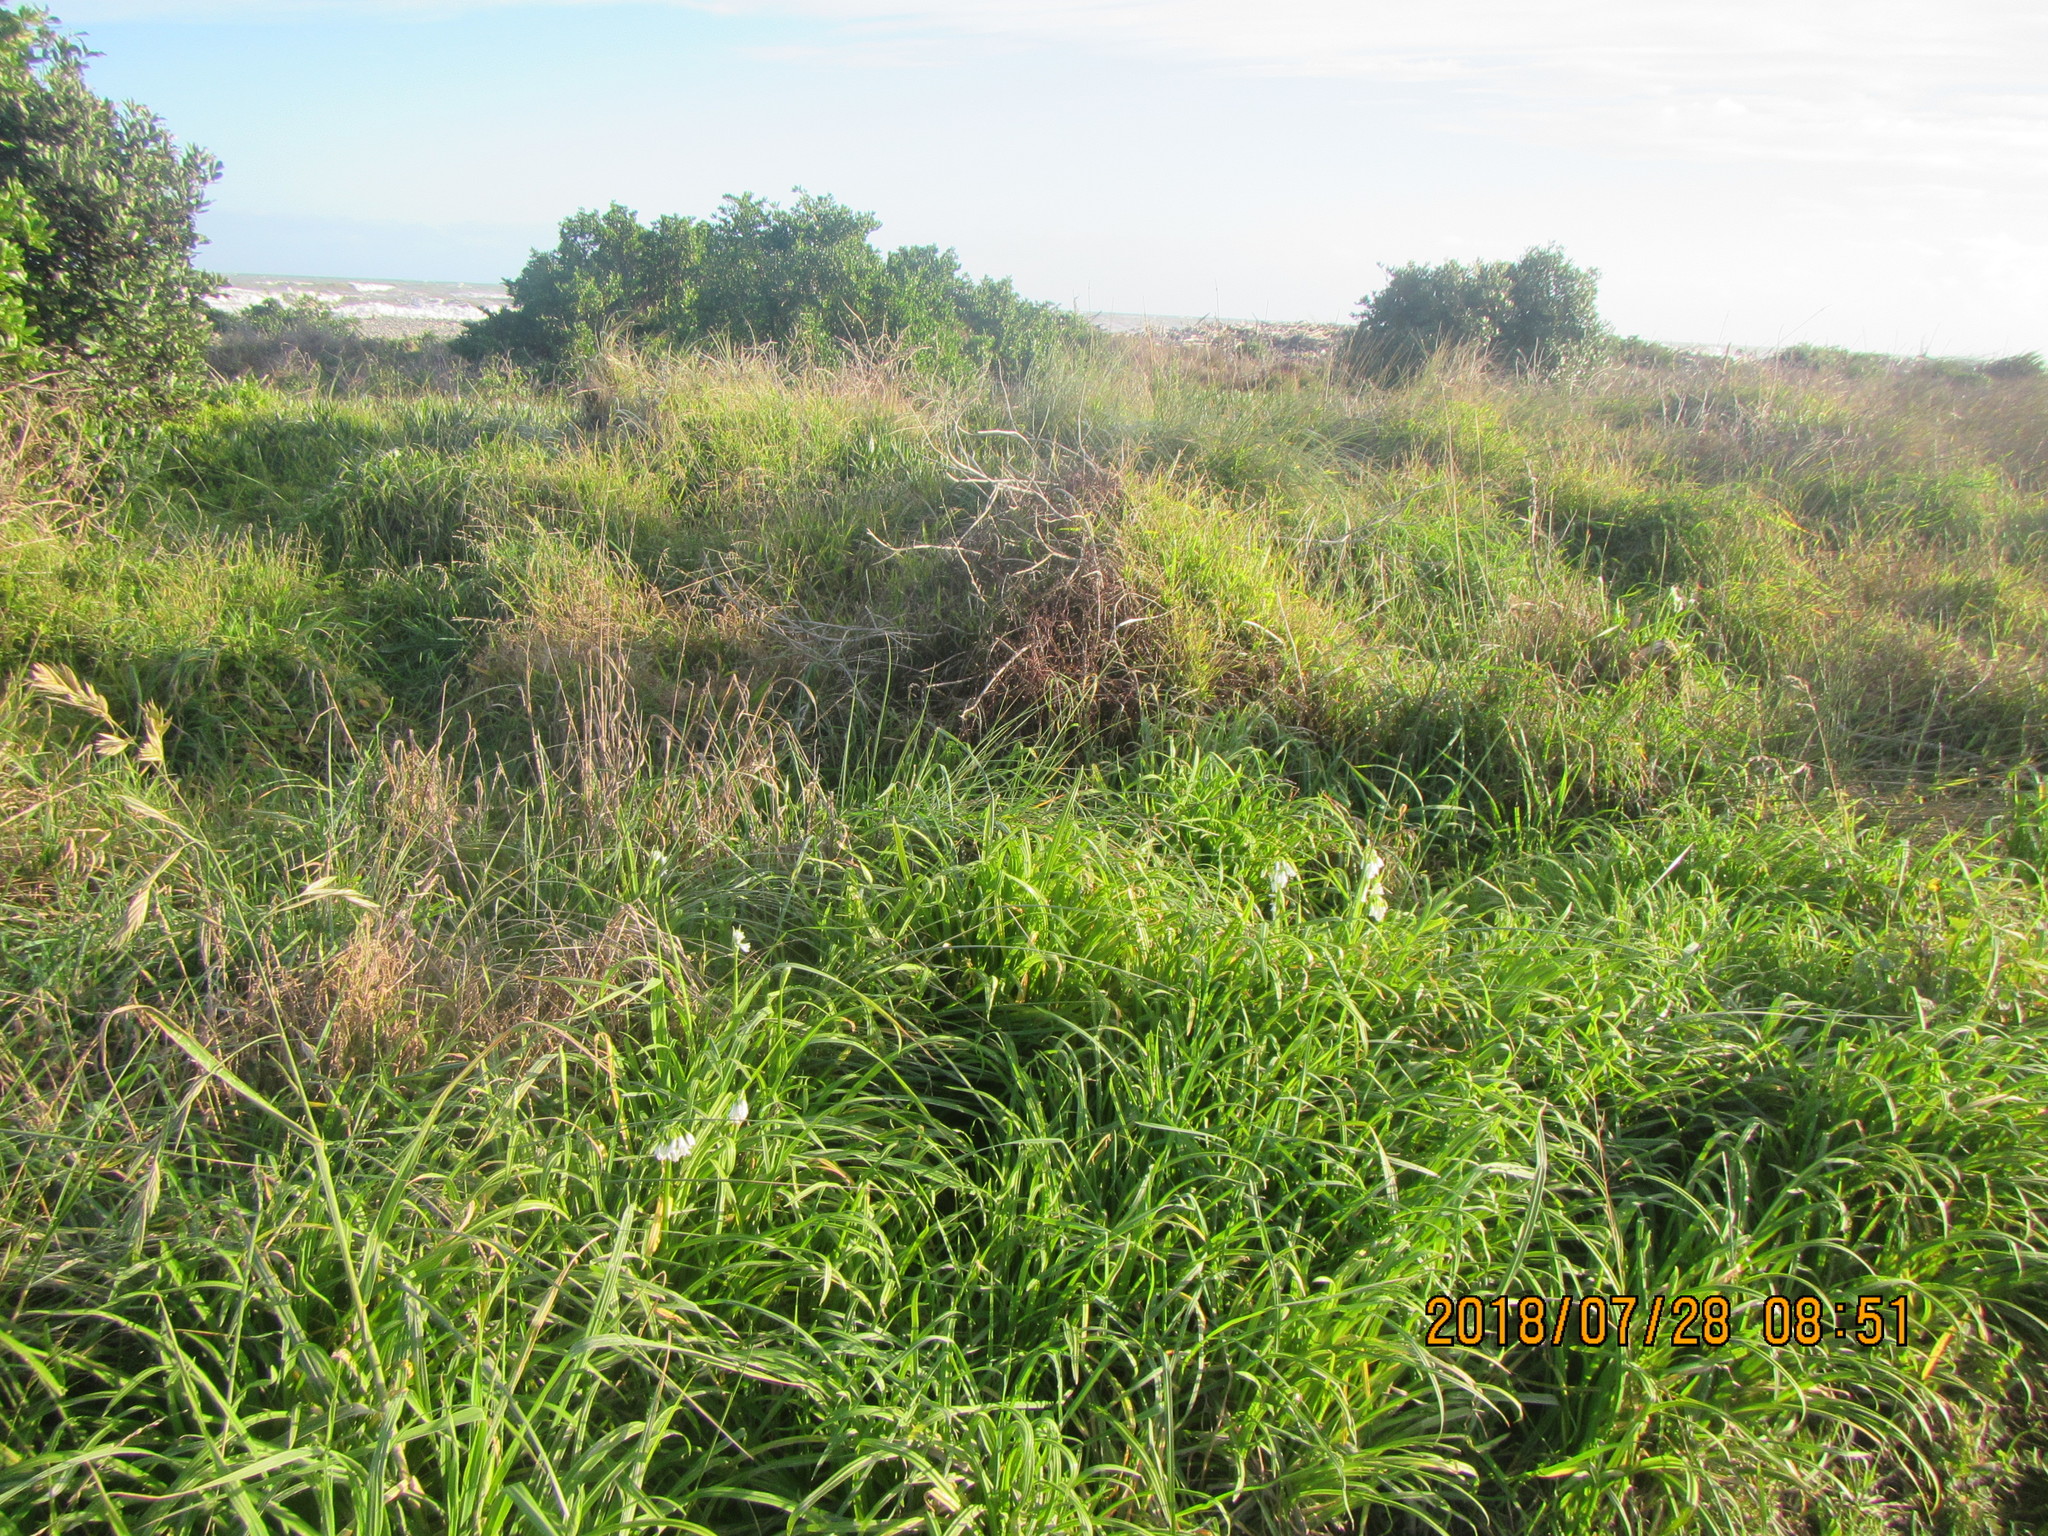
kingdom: Plantae
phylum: Tracheophyta
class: Liliopsida
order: Asparagales
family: Amaryllidaceae
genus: Allium
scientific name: Allium triquetrum
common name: Three-cornered garlic
